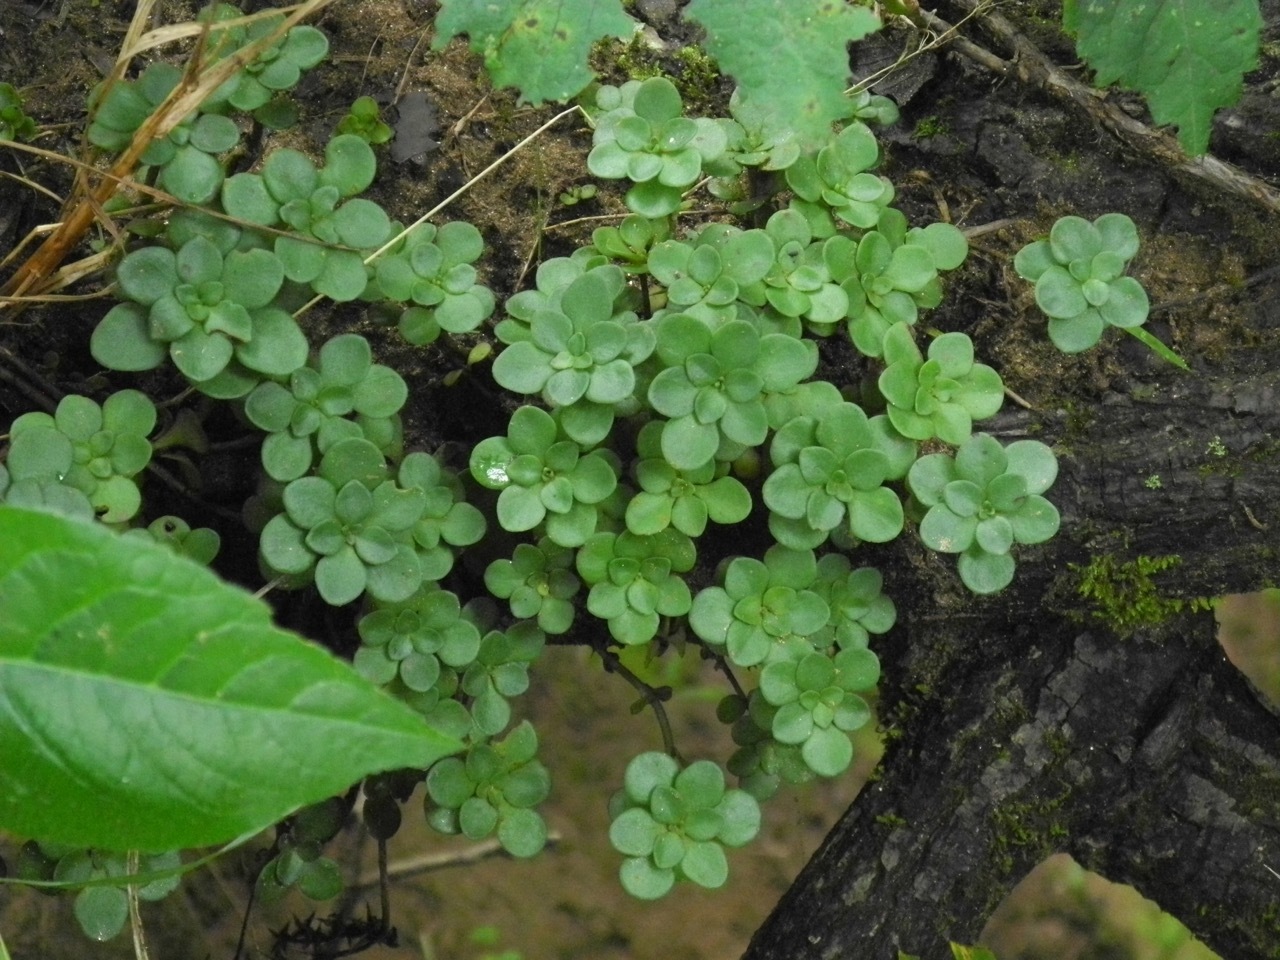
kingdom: Plantae
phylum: Tracheophyta
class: Magnoliopsida
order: Saxifragales
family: Crassulaceae
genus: Sedum
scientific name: Sedum ternatum
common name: Wild stonecrop
